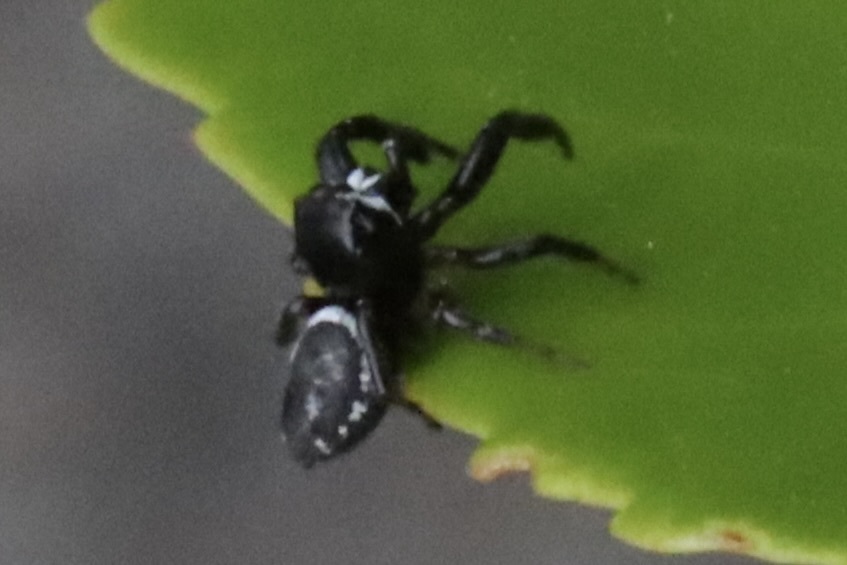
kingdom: Animalia
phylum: Arthropoda
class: Arachnida
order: Araneae
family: Salticidae
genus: Metaphidippus
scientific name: Metaphidippus manni
